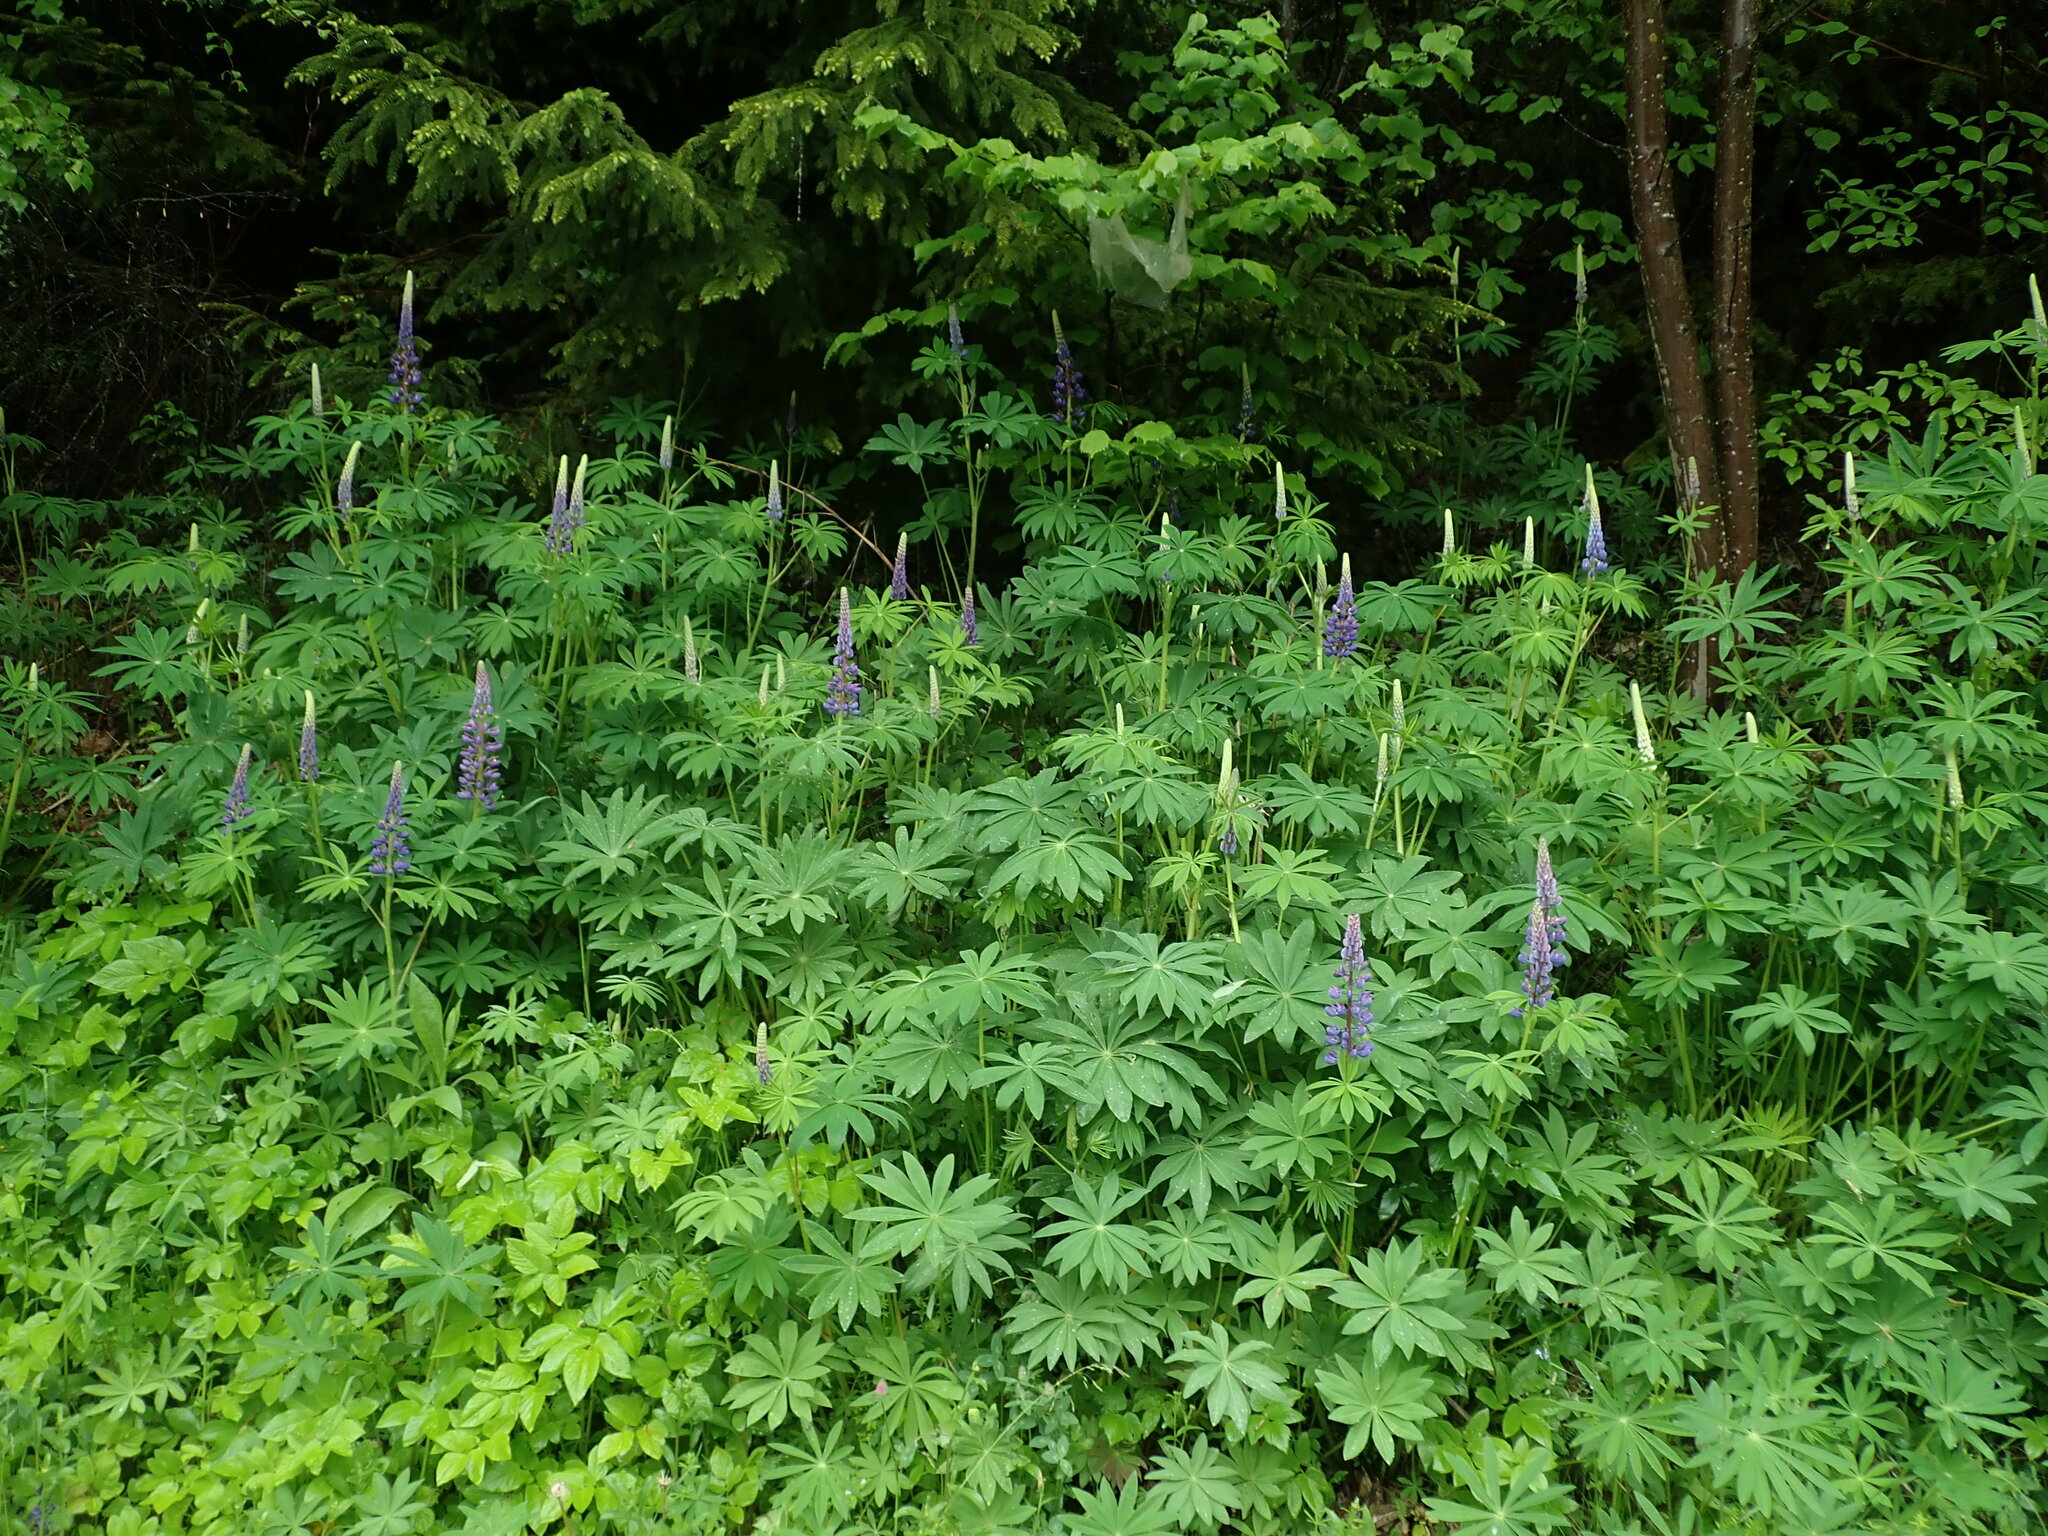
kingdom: Plantae
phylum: Tracheophyta
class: Magnoliopsida
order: Fabales
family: Fabaceae
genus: Lupinus
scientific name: Lupinus polyphyllus
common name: Garden lupin
